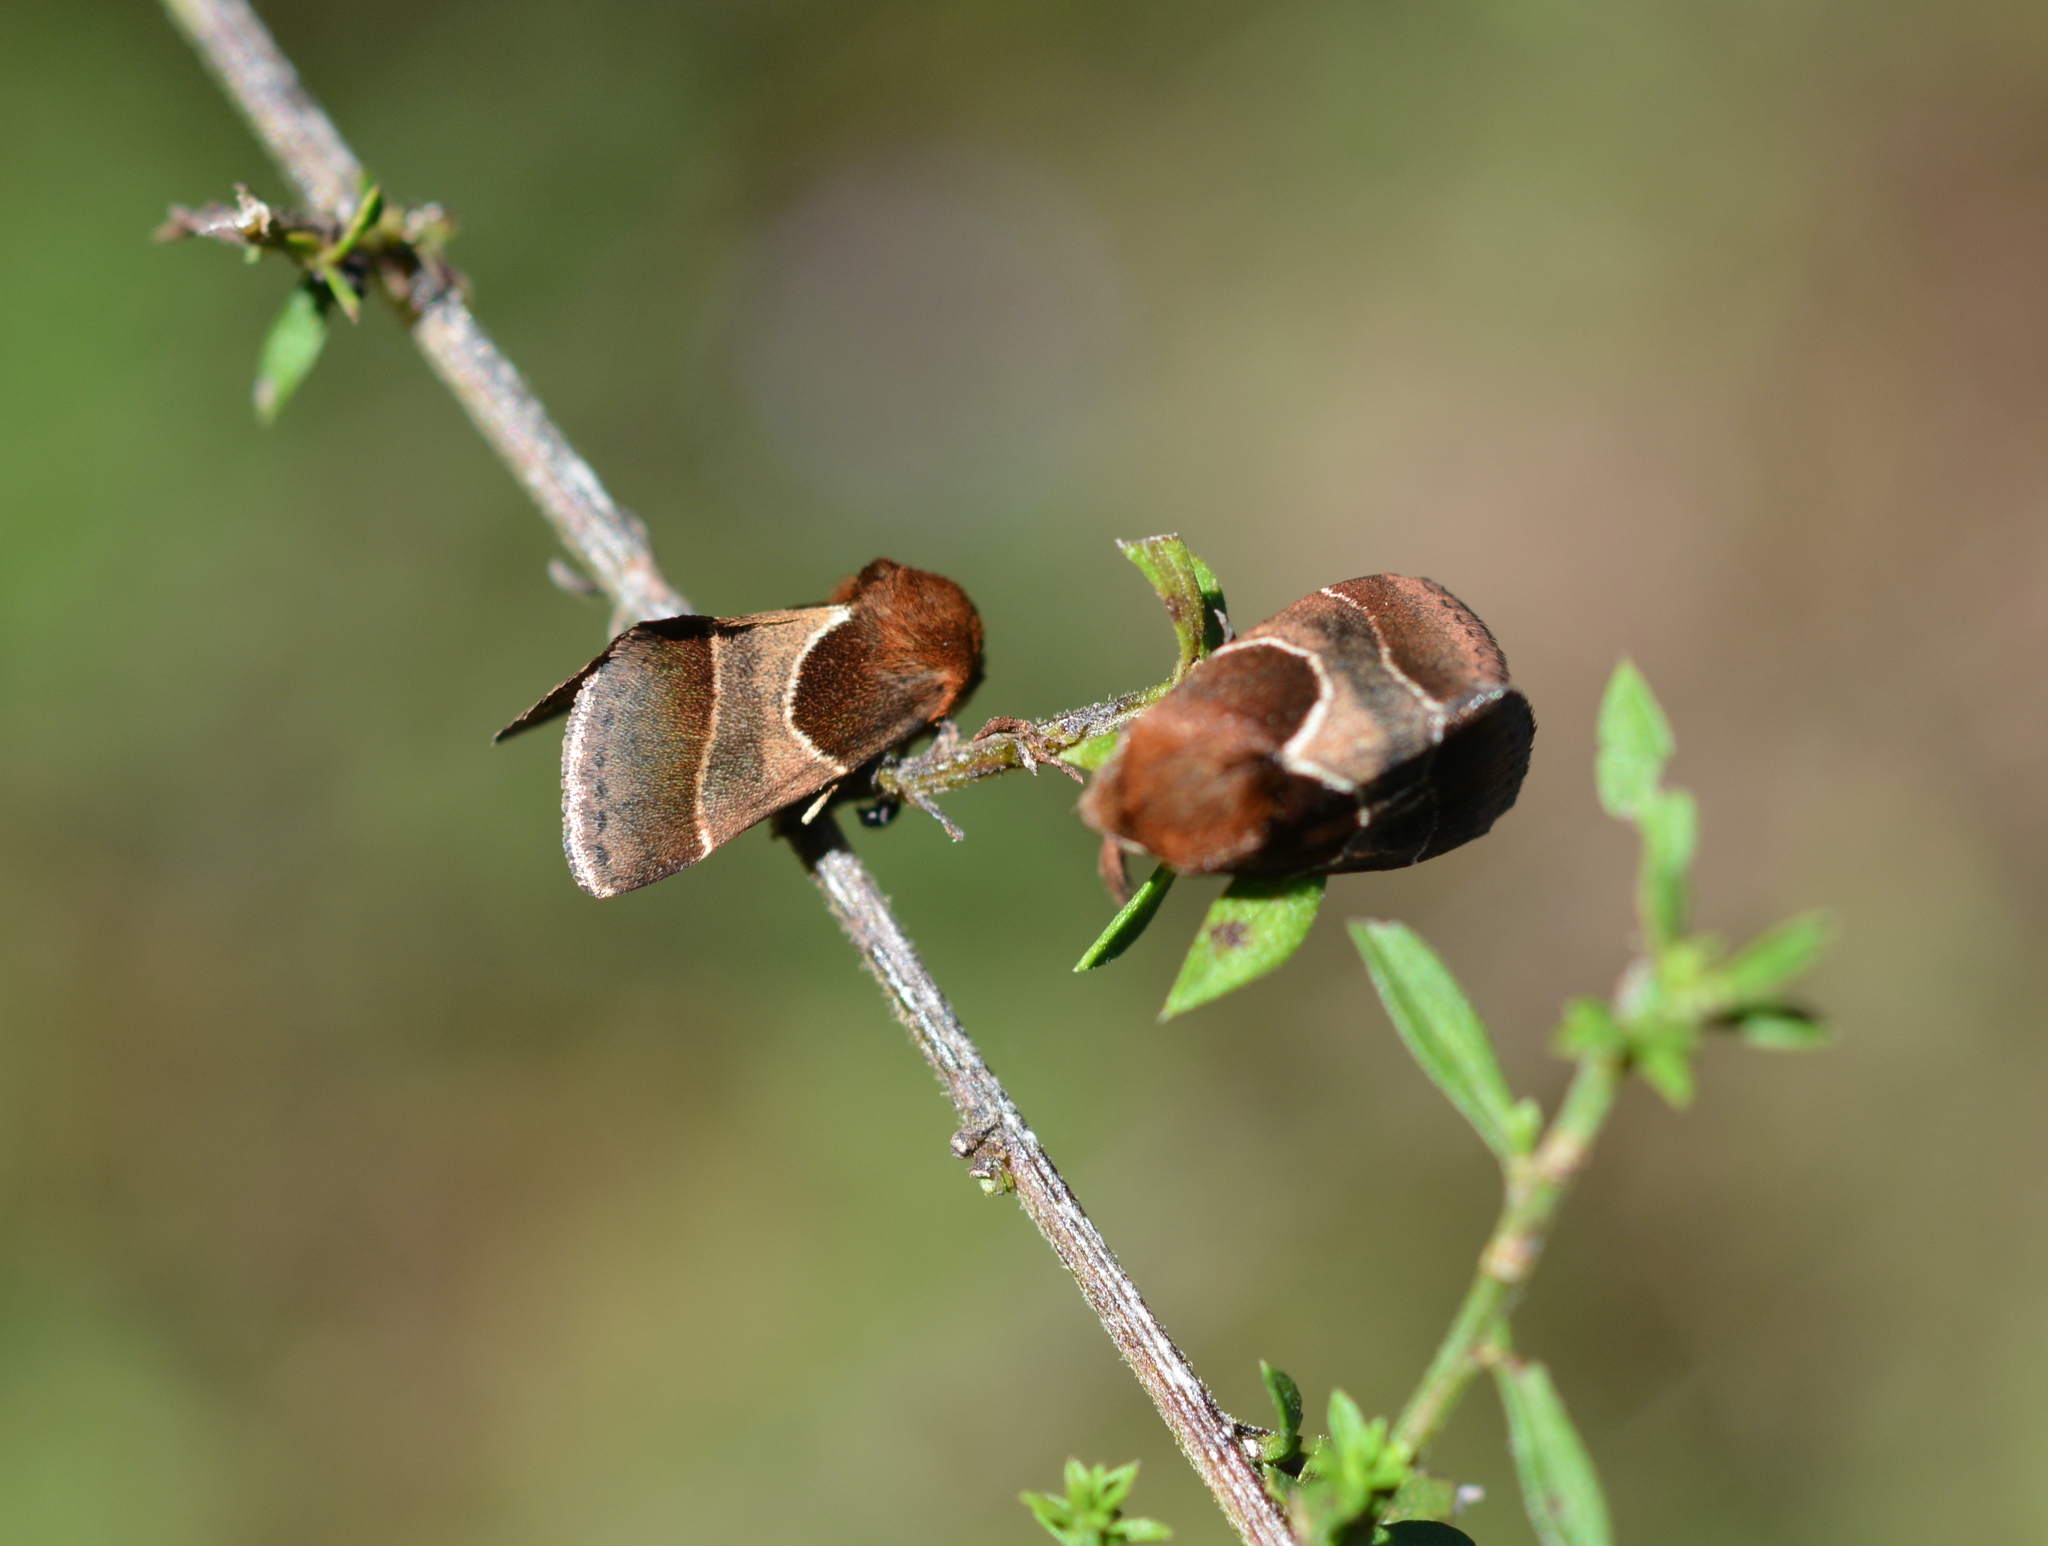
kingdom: Animalia
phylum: Arthropoda
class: Insecta
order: Lepidoptera
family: Noctuidae
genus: Schinia
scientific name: Schinia arcigera
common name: Arcigera flower moth
